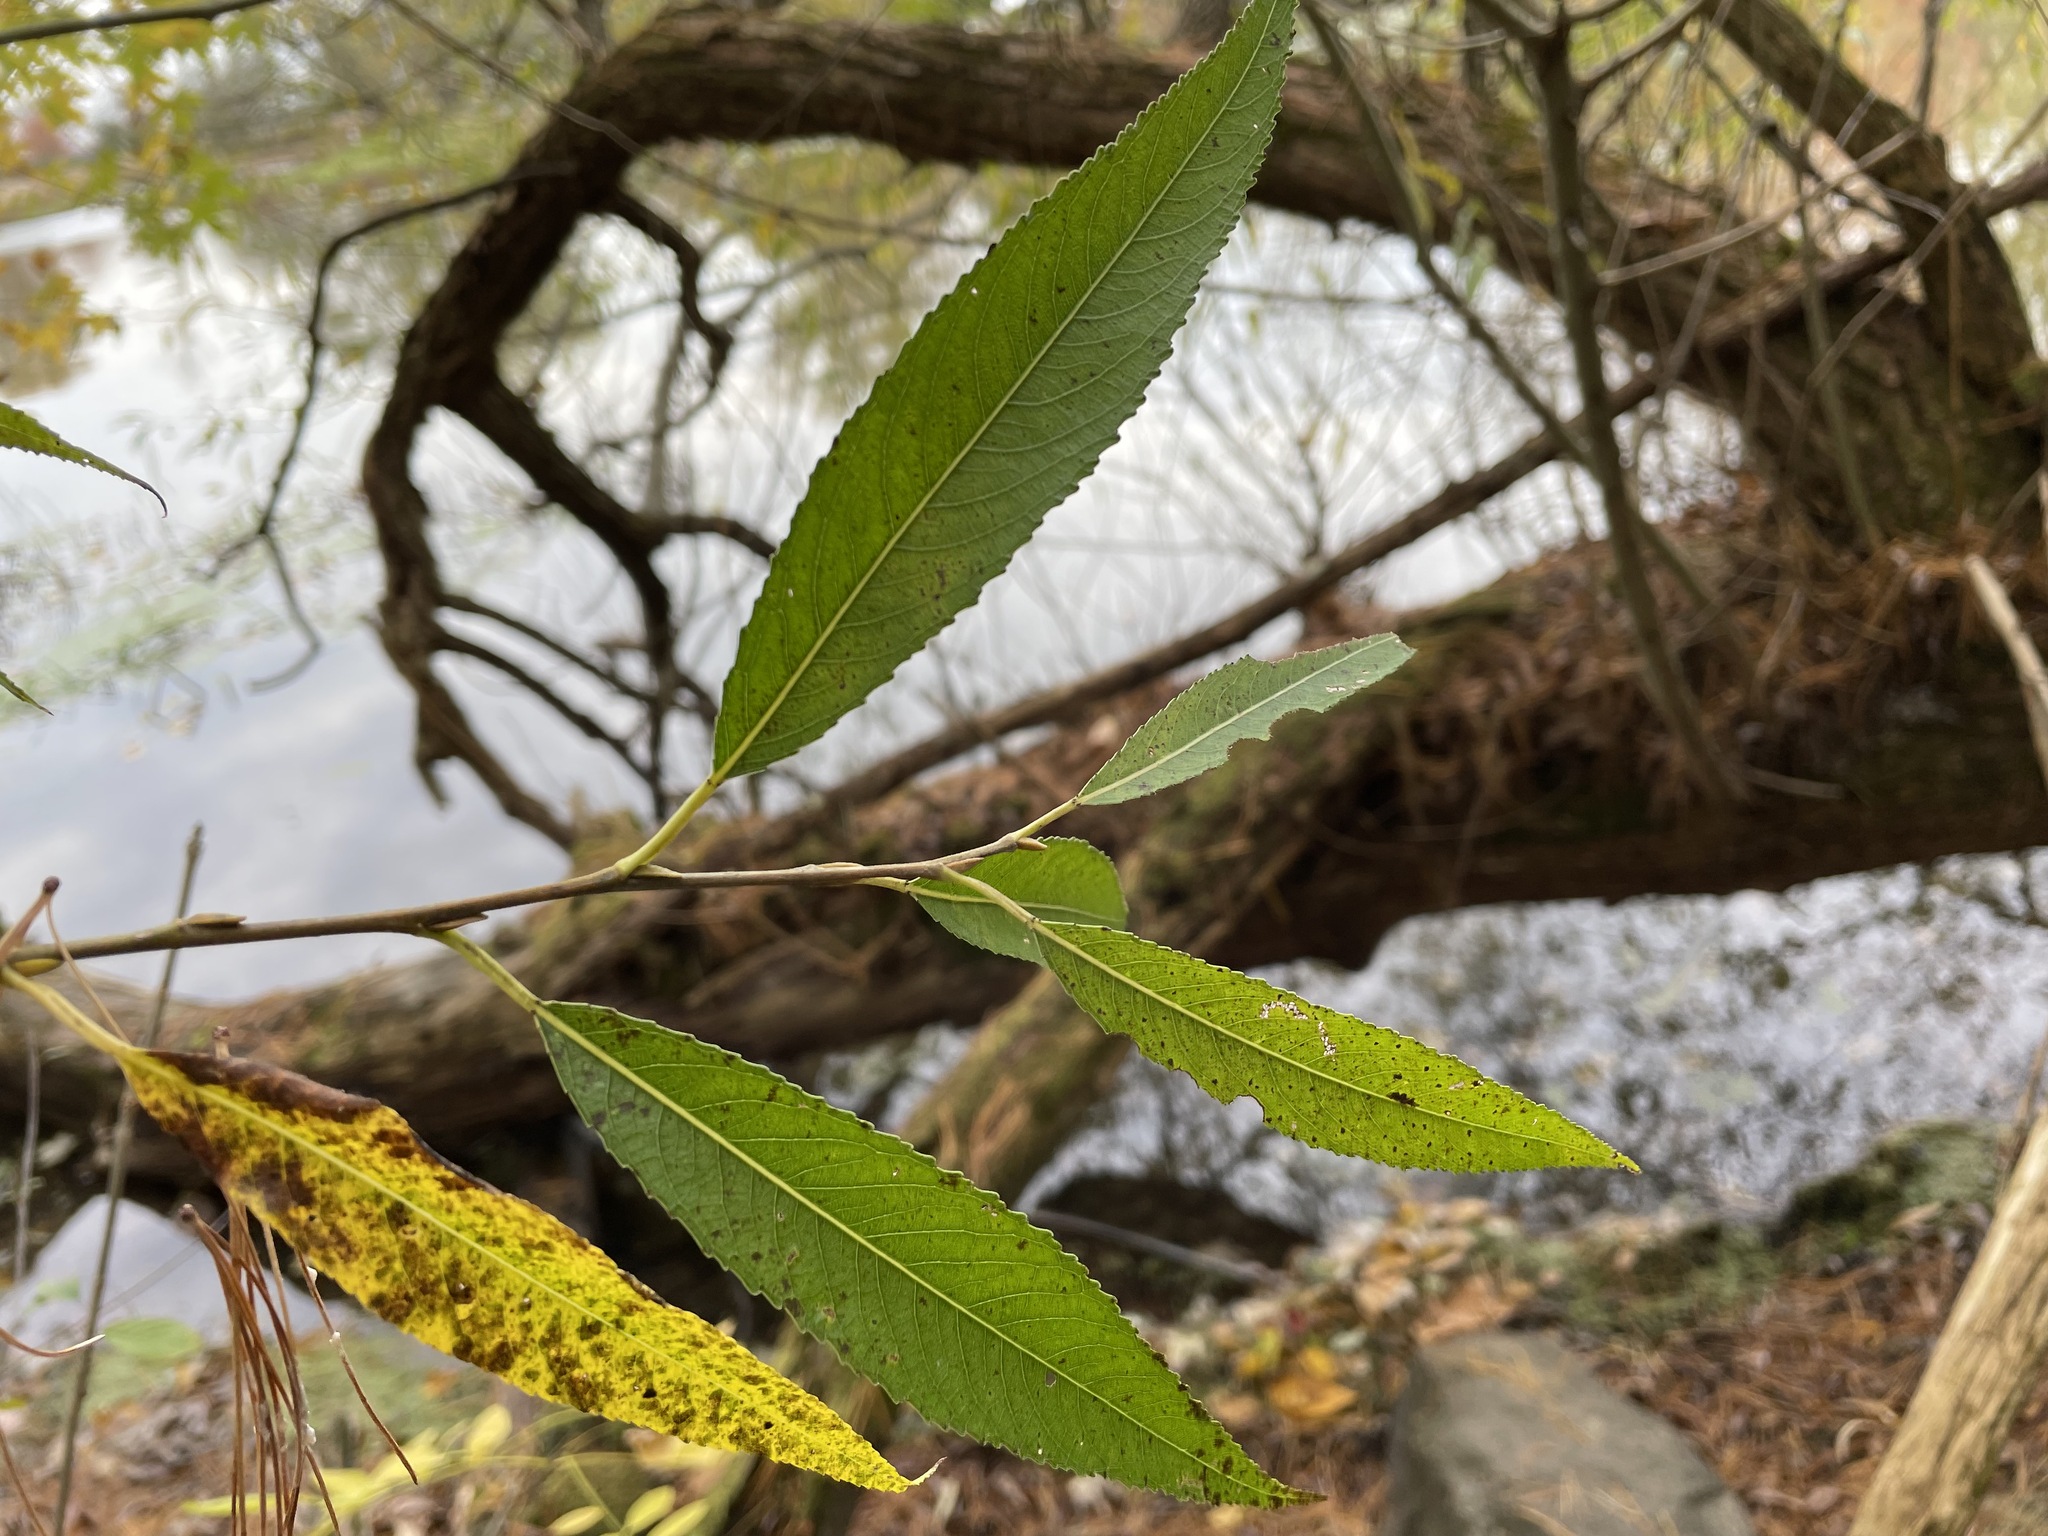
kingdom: Plantae
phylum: Tracheophyta
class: Magnoliopsida
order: Malpighiales
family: Salicaceae
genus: Salix
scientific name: Salix fragilis
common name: Crack willow
